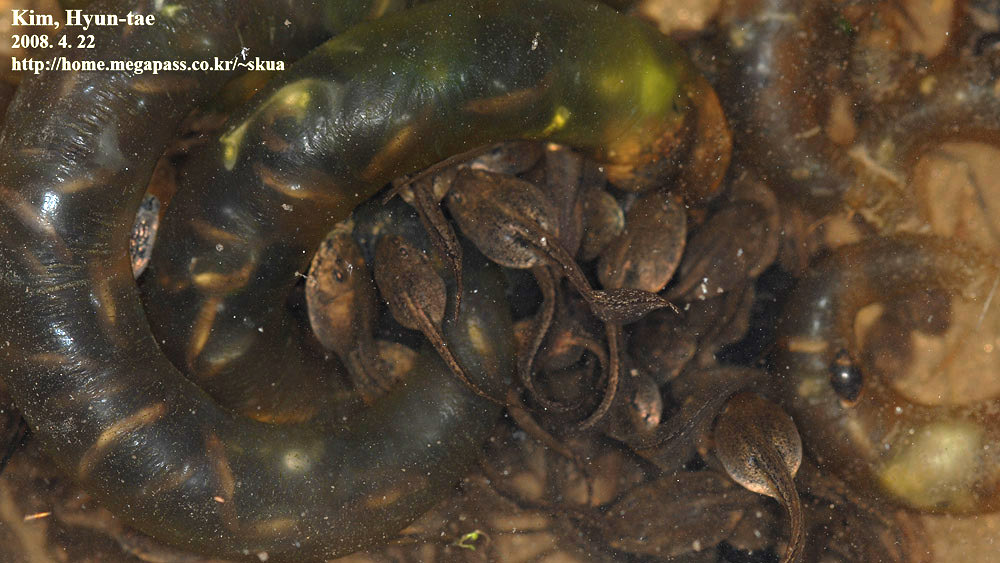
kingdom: Animalia
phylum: Chordata
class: Amphibia
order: Anura
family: Ranidae
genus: Rana
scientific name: Rana coreana
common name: Korean brown frog
